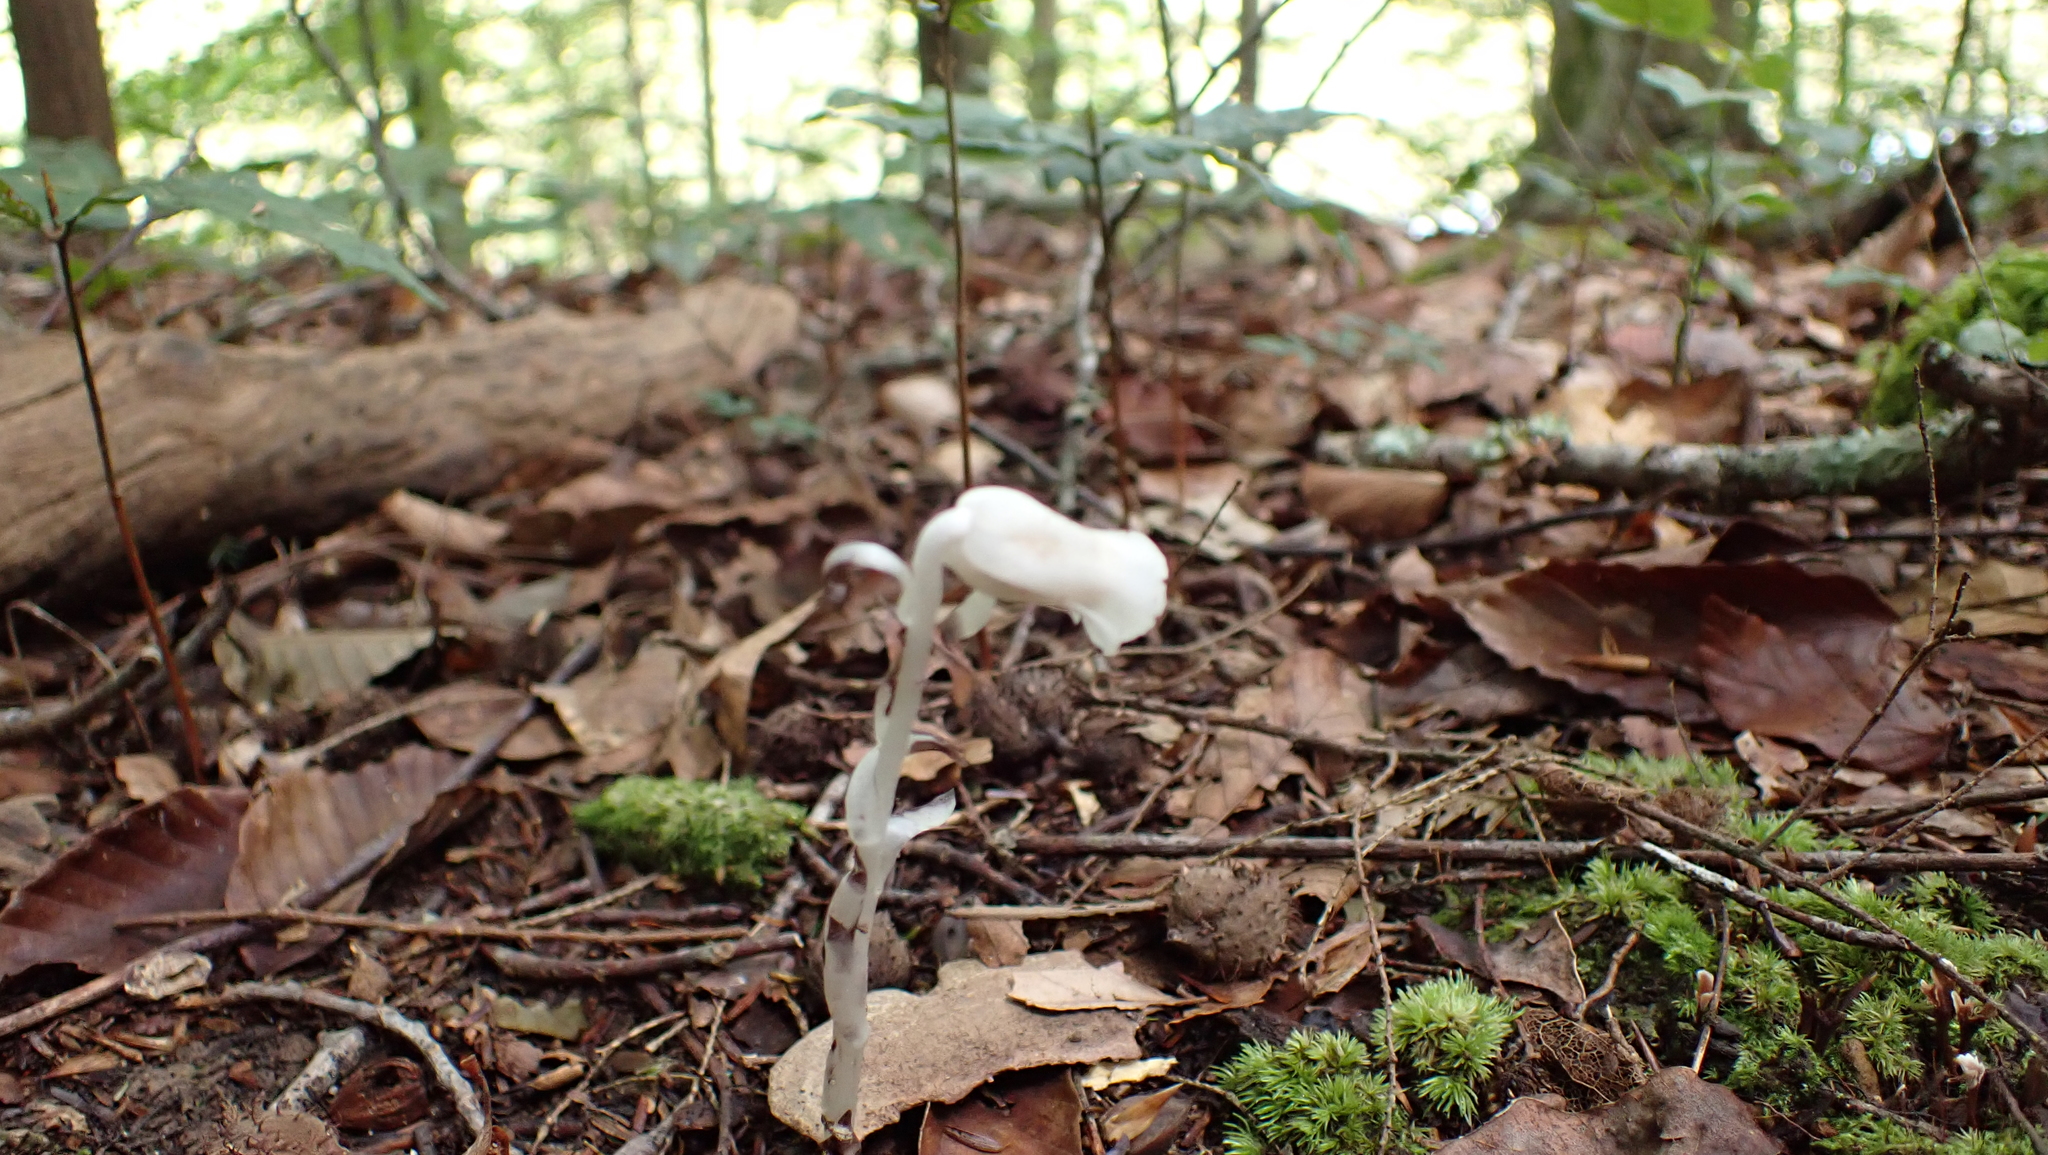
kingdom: Plantae
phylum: Tracheophyta
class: Magnoliopsida
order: Ericales
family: Ericaceae
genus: Monotropa
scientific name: Monotropa uniflora
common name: Convulsion root
